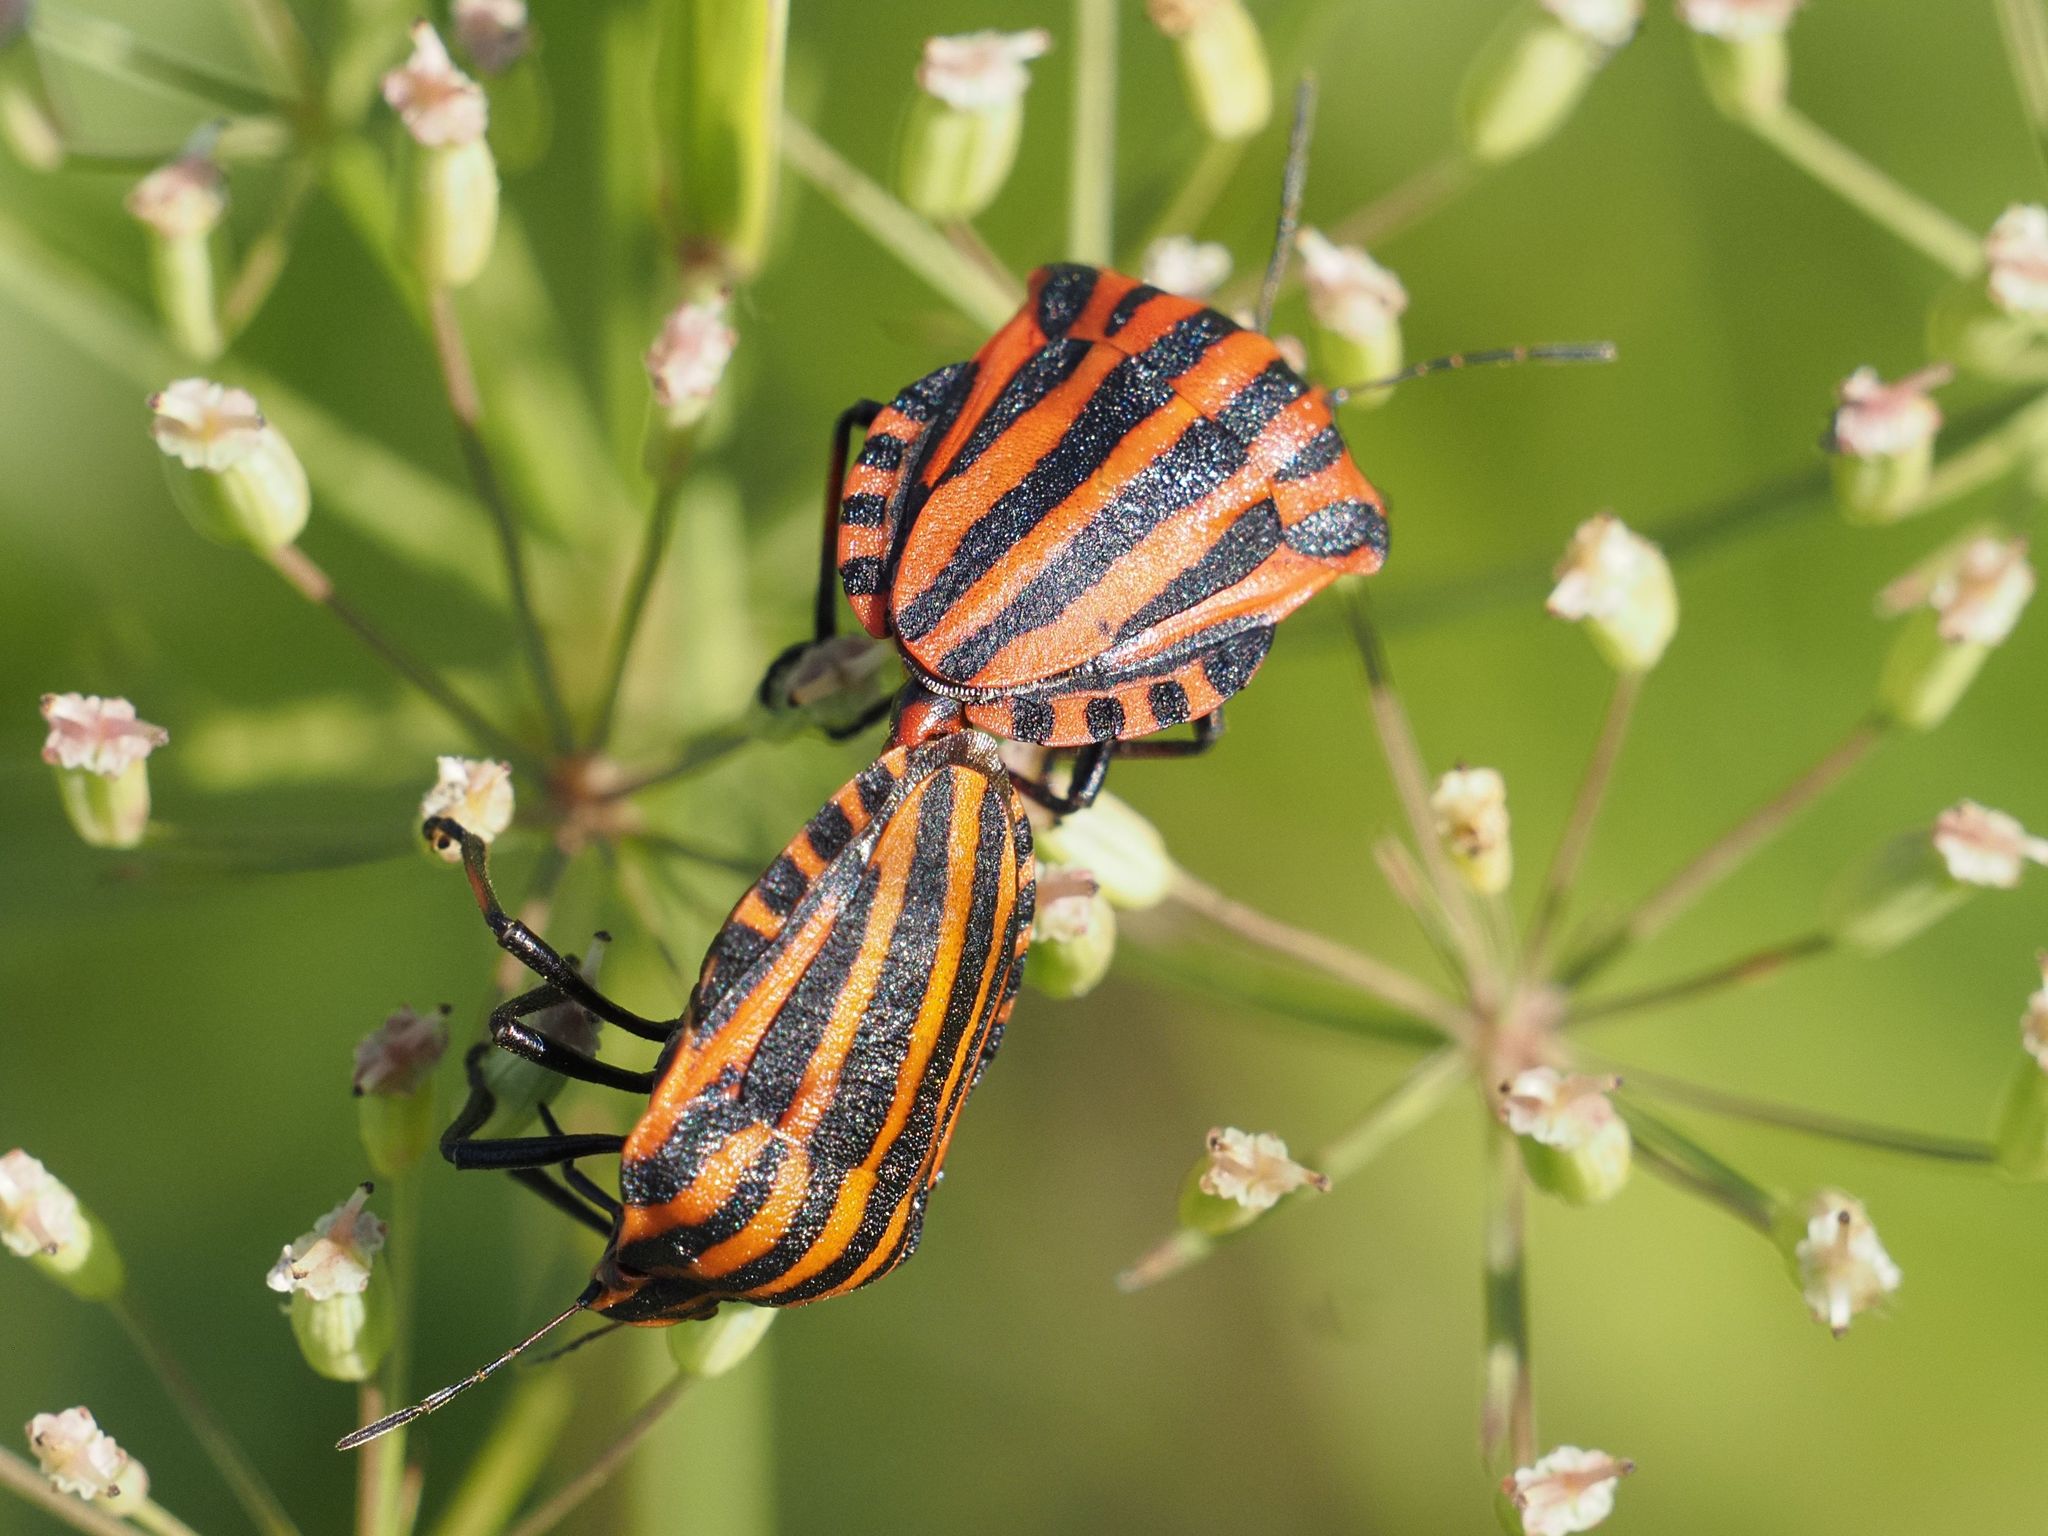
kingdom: Animalia
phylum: Arthropoda
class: Insecta
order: Hemiptera
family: Pentatomidae
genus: Graphosoma
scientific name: Graphosoma italicum
